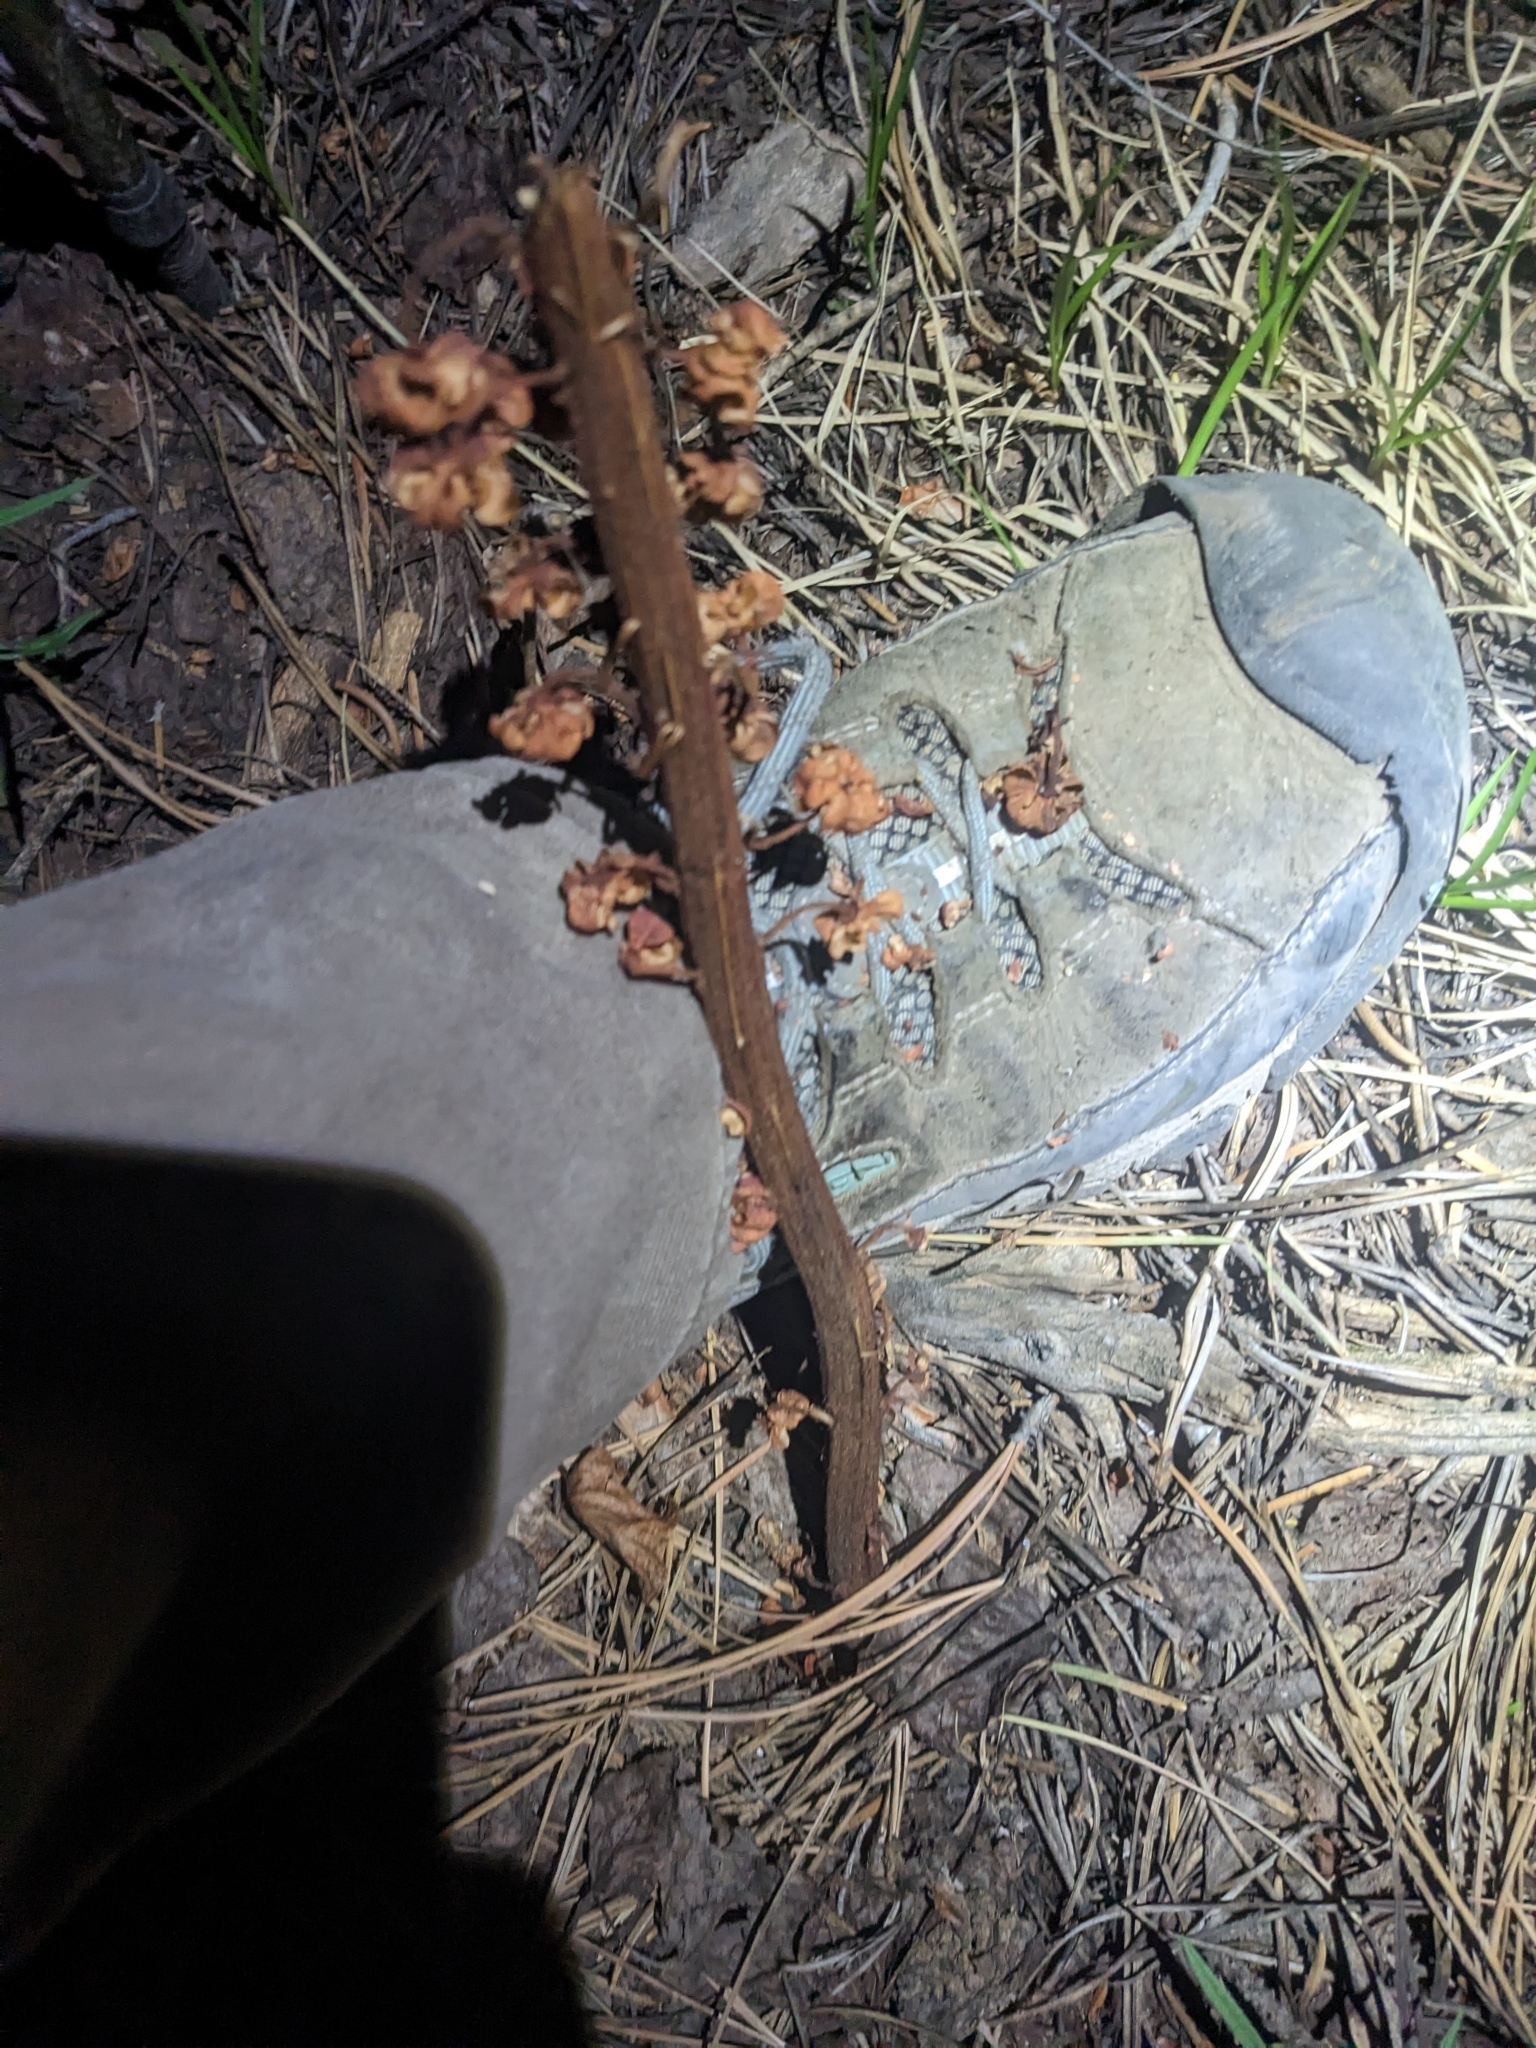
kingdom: Plantae
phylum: Tracheophyta
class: Magnoliopsida
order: Ericales
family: Ericaceae
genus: Pterospora
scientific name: Pterospora andromedea
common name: Giant bird's-nest
